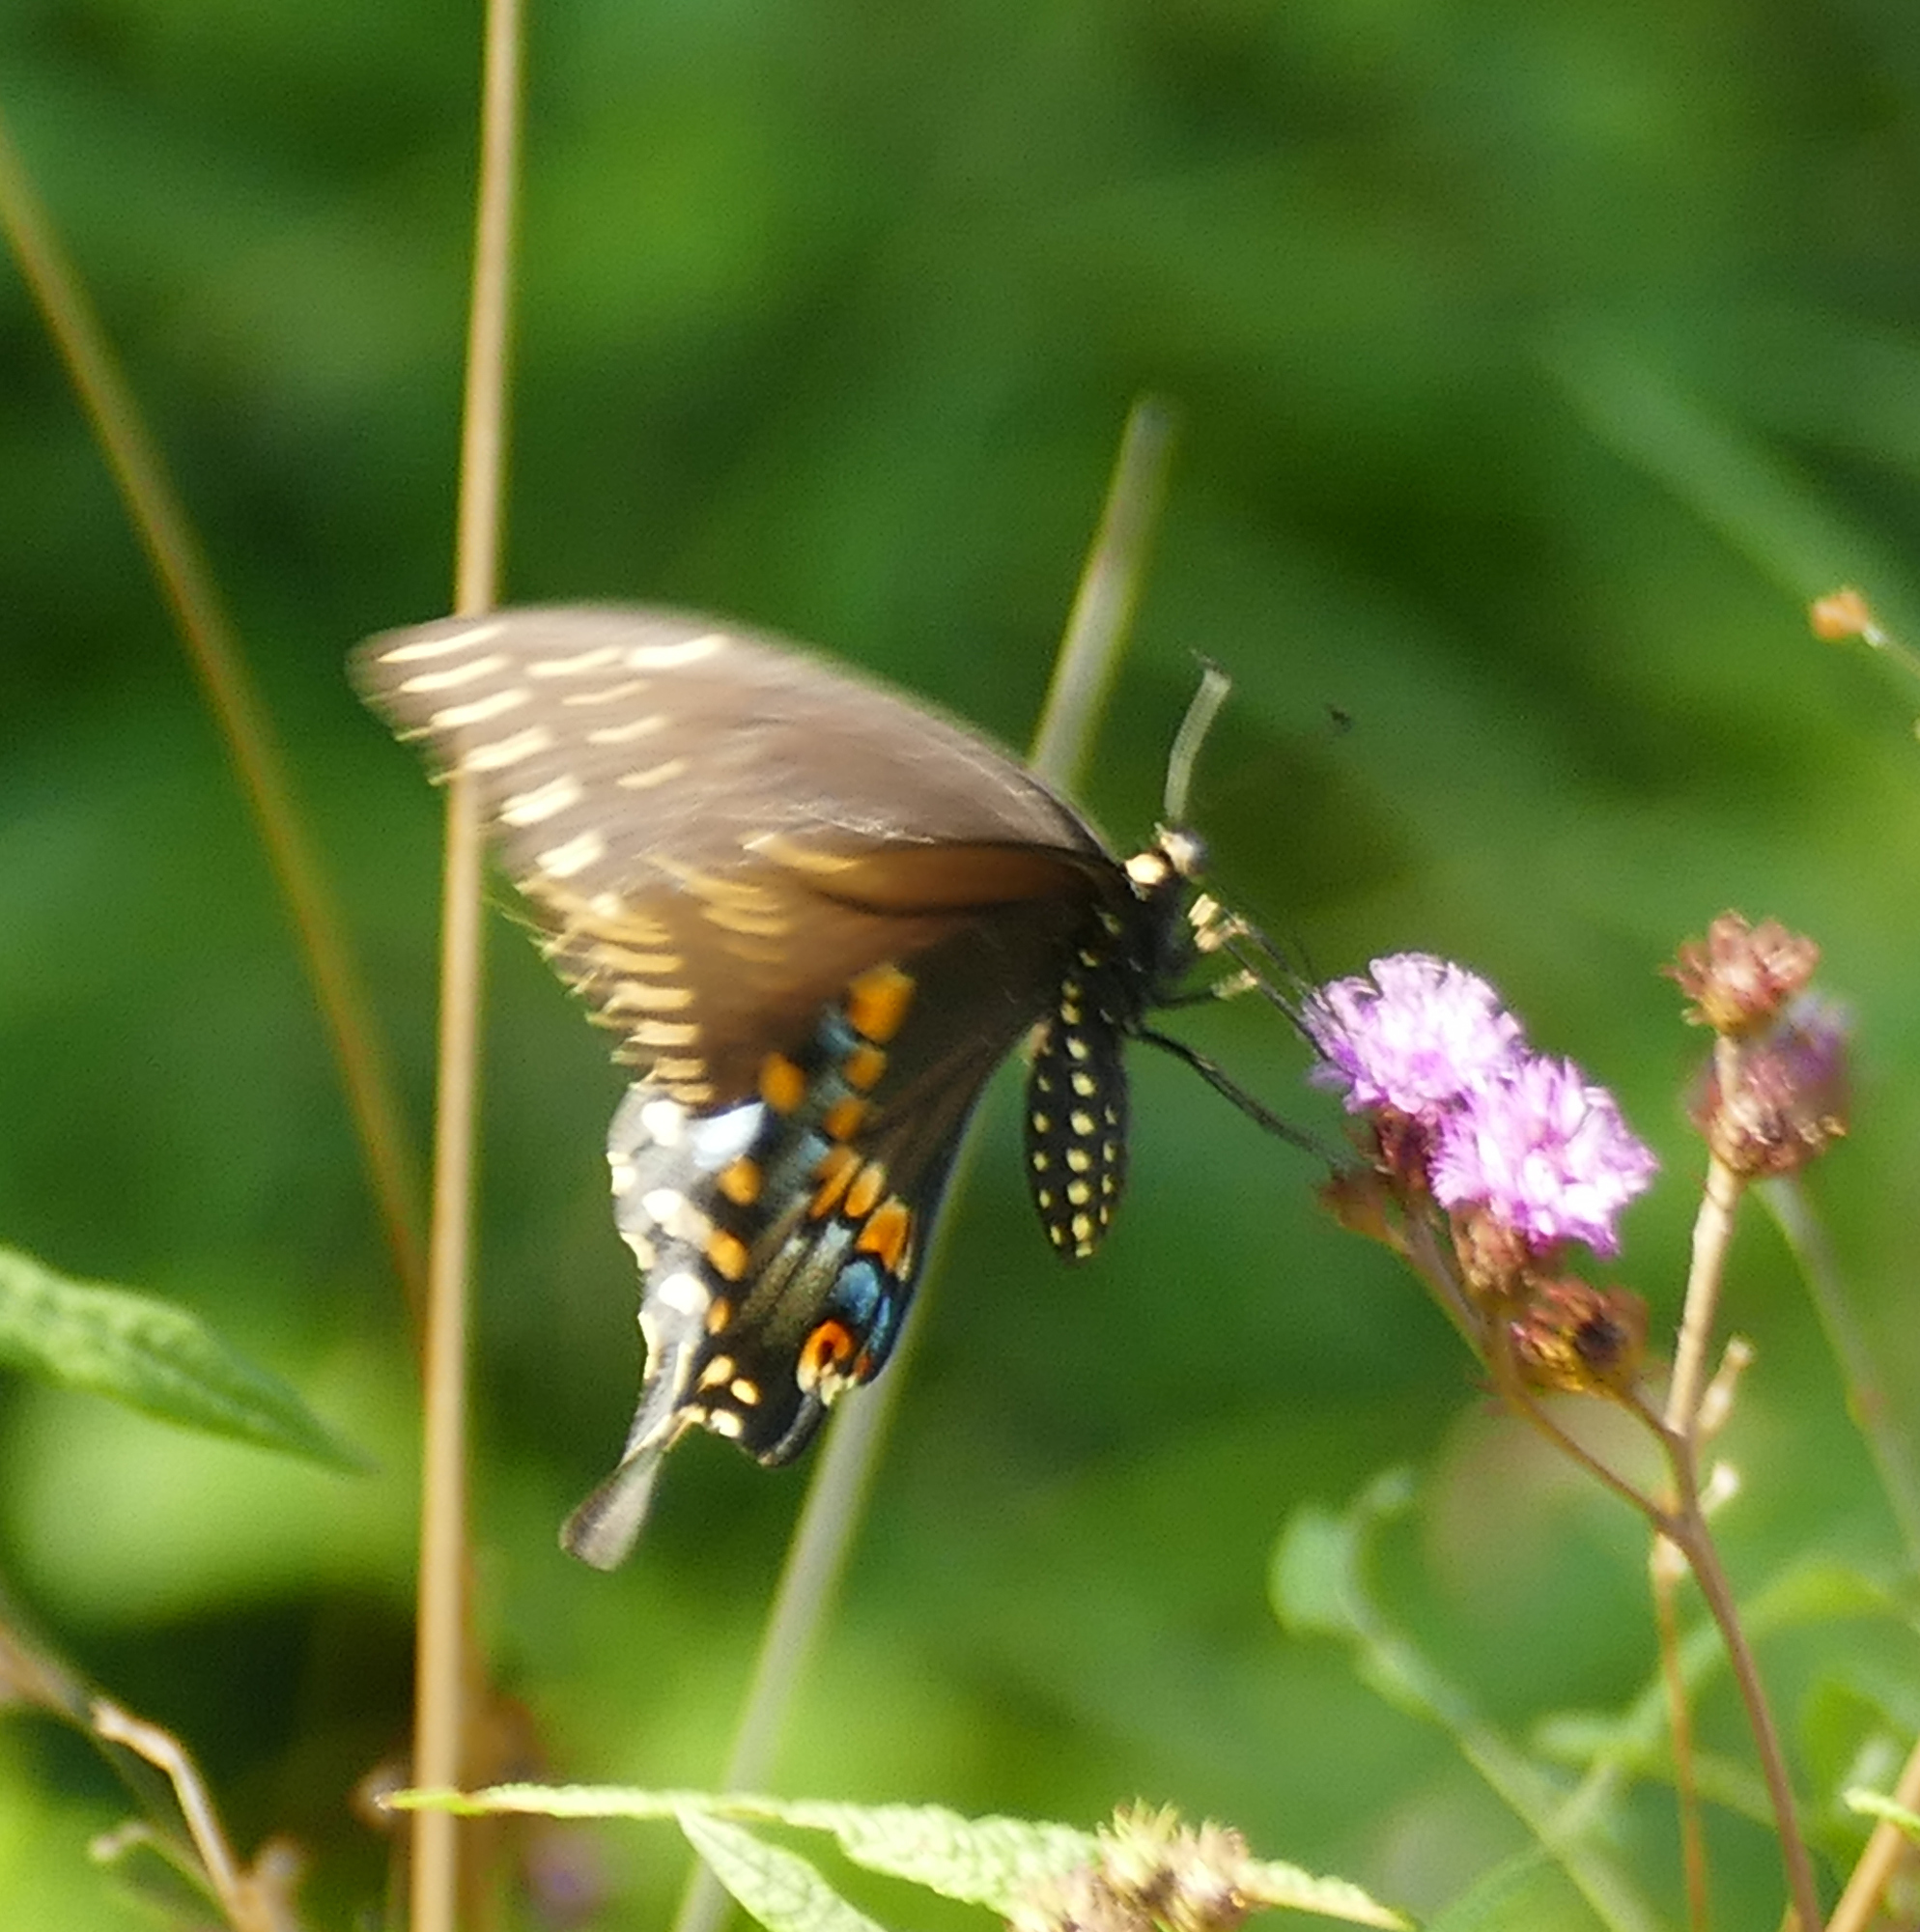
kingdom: Animalia
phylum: Arthropoda
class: Insecta
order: Lepidoptera
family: Papilionidae
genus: Papilio
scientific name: Papilio polyxenes
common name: Black swallowtail
